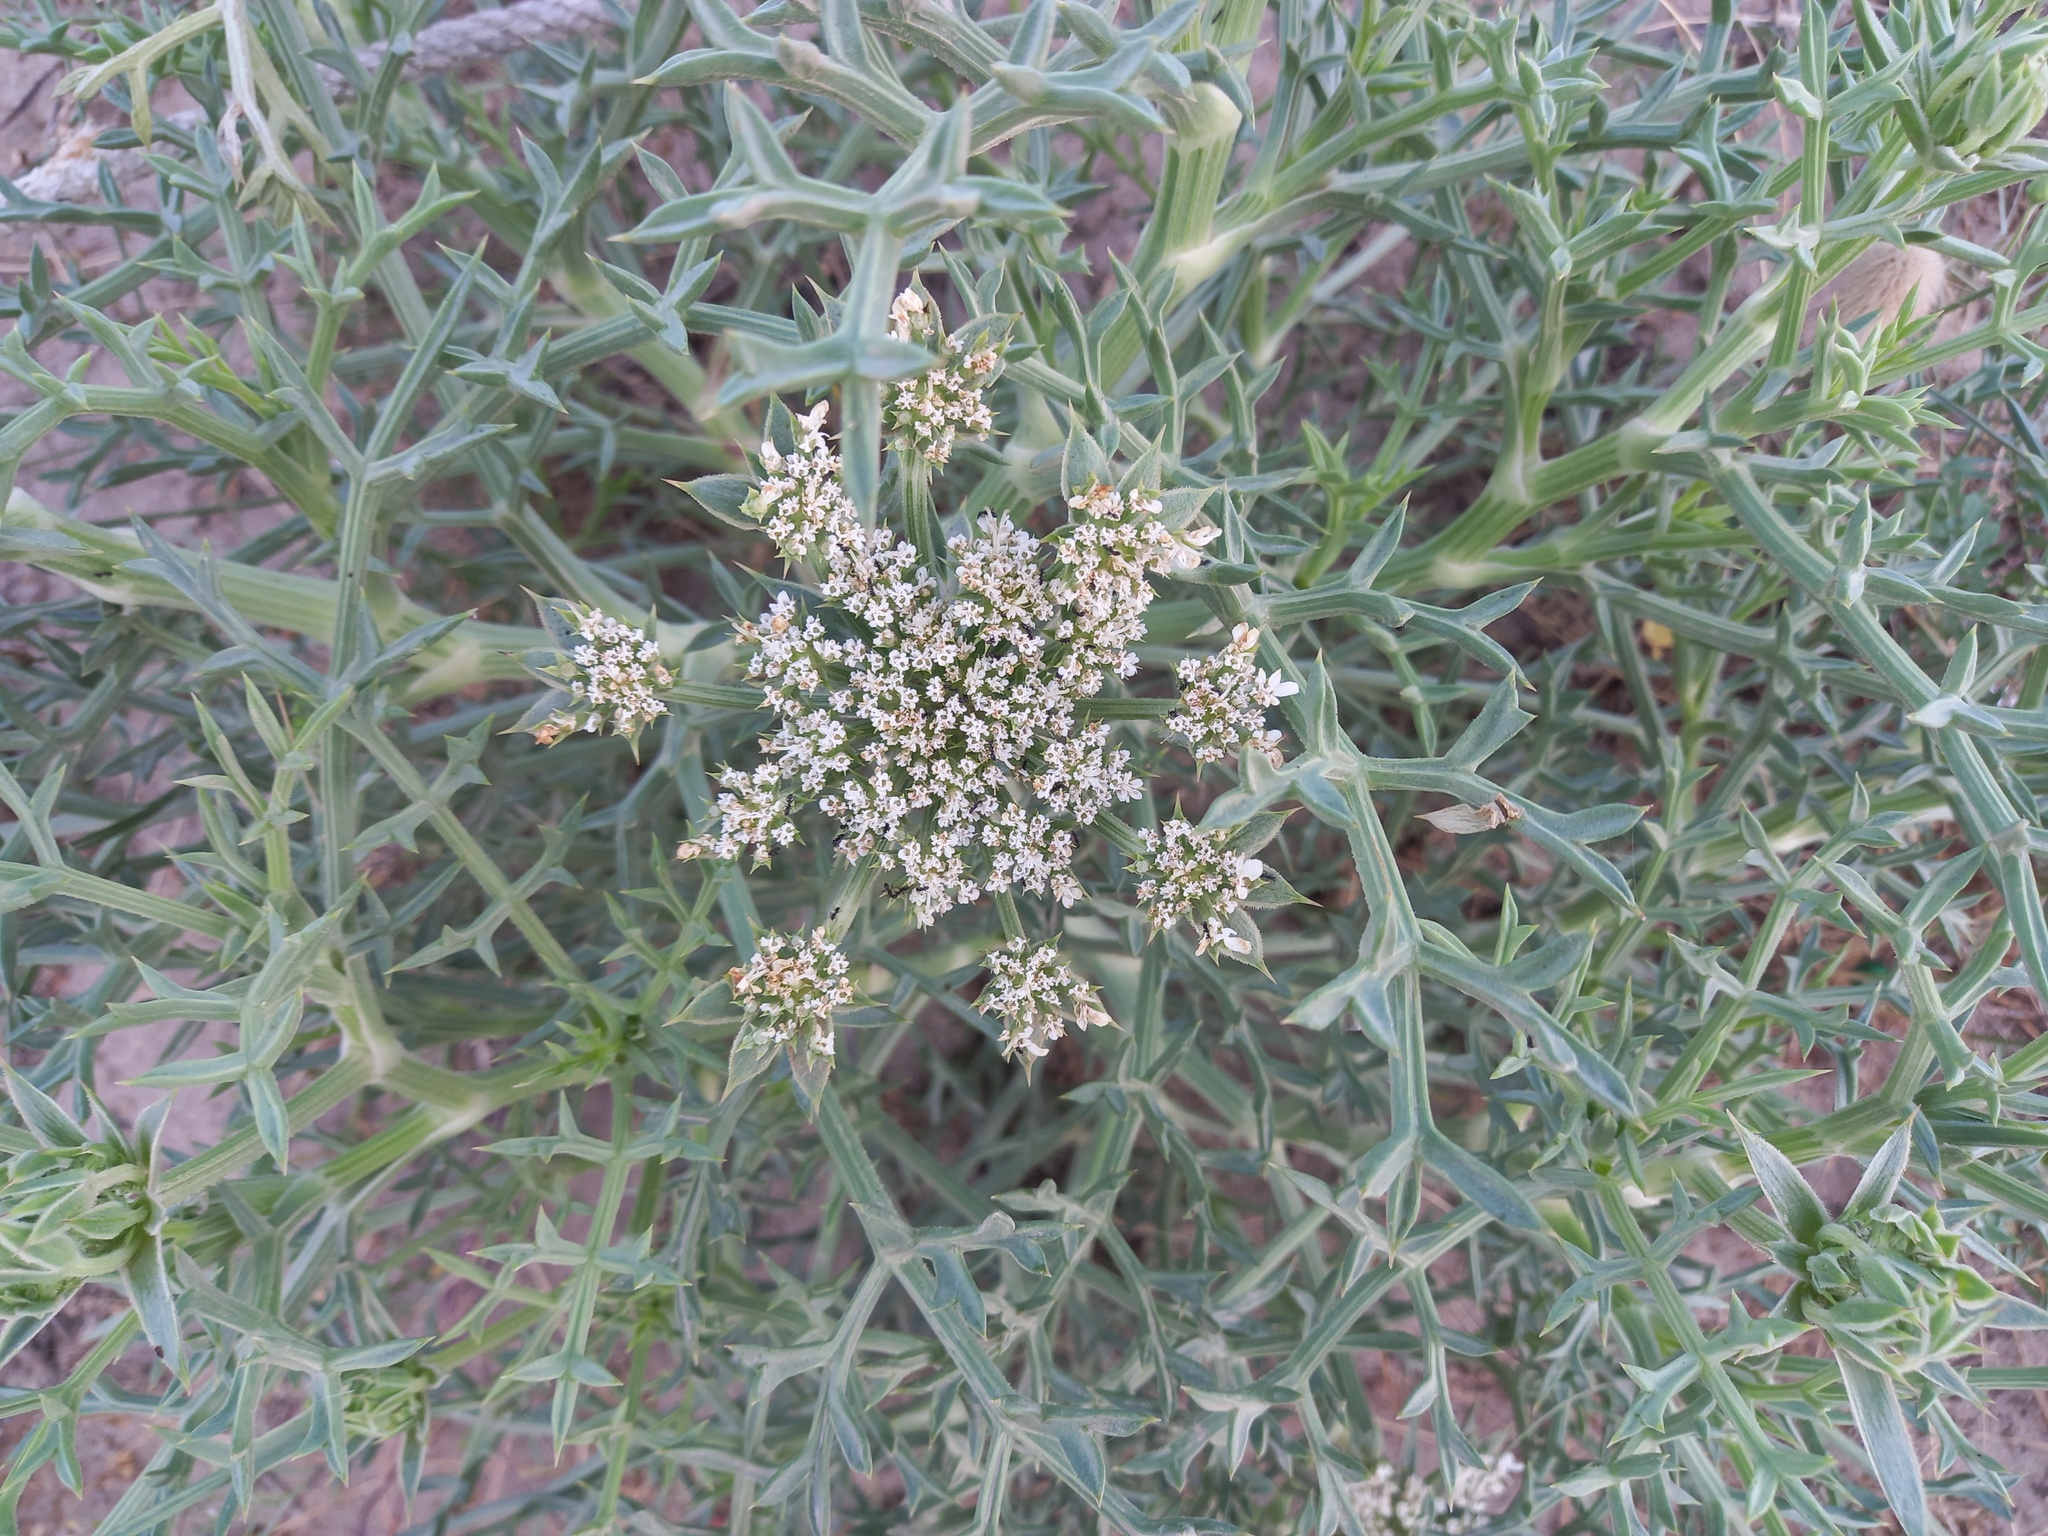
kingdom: Plantae
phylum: Tracheophyta
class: Magnoliopsida
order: Apiales
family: Apiaceae
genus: Echinophora
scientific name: Echinophora spinosa
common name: Prickly samphire
